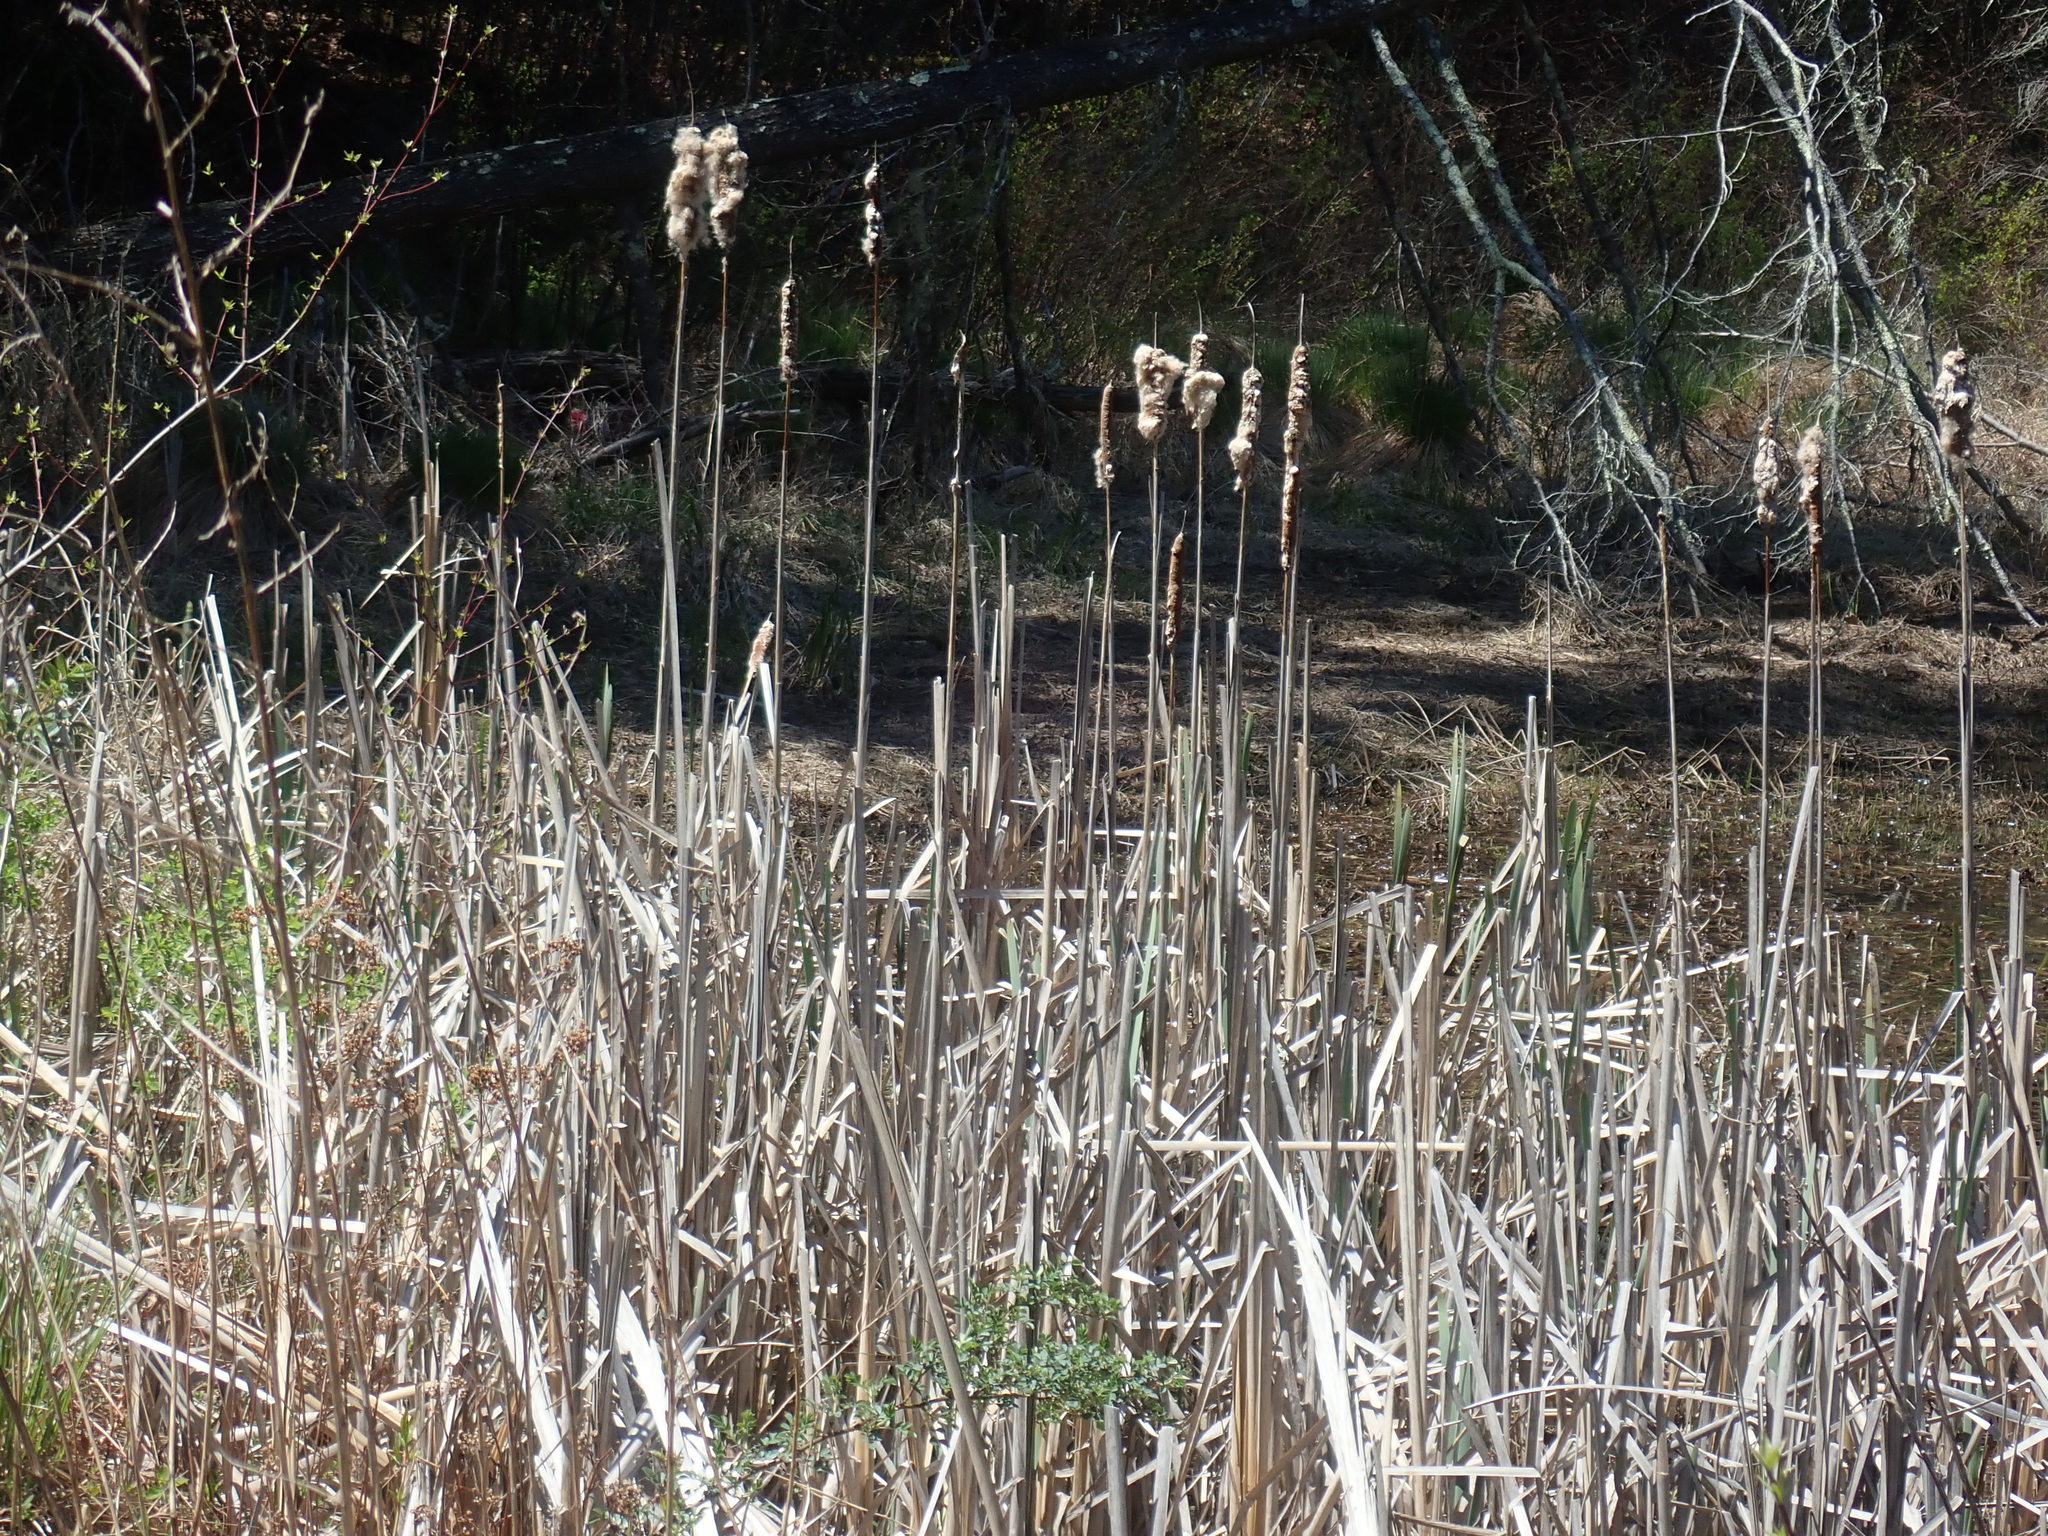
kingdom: Plantae
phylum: Tracheophyta
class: Liliopsida
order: Poales
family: Typhaceae
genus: Typha
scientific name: Typha
